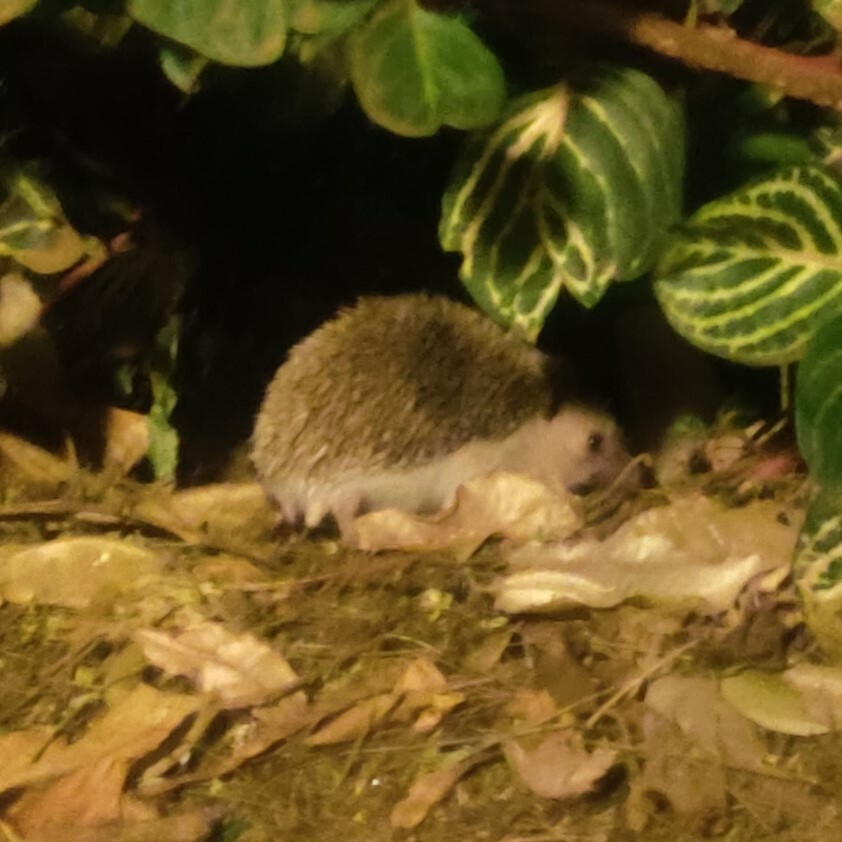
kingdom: Animalia
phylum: Chordata
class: Mammalia
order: Erinaceomorpha
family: Erinaceidae
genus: Atelerix
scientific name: Atelerix albiventris
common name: Four-toed hedgehog
